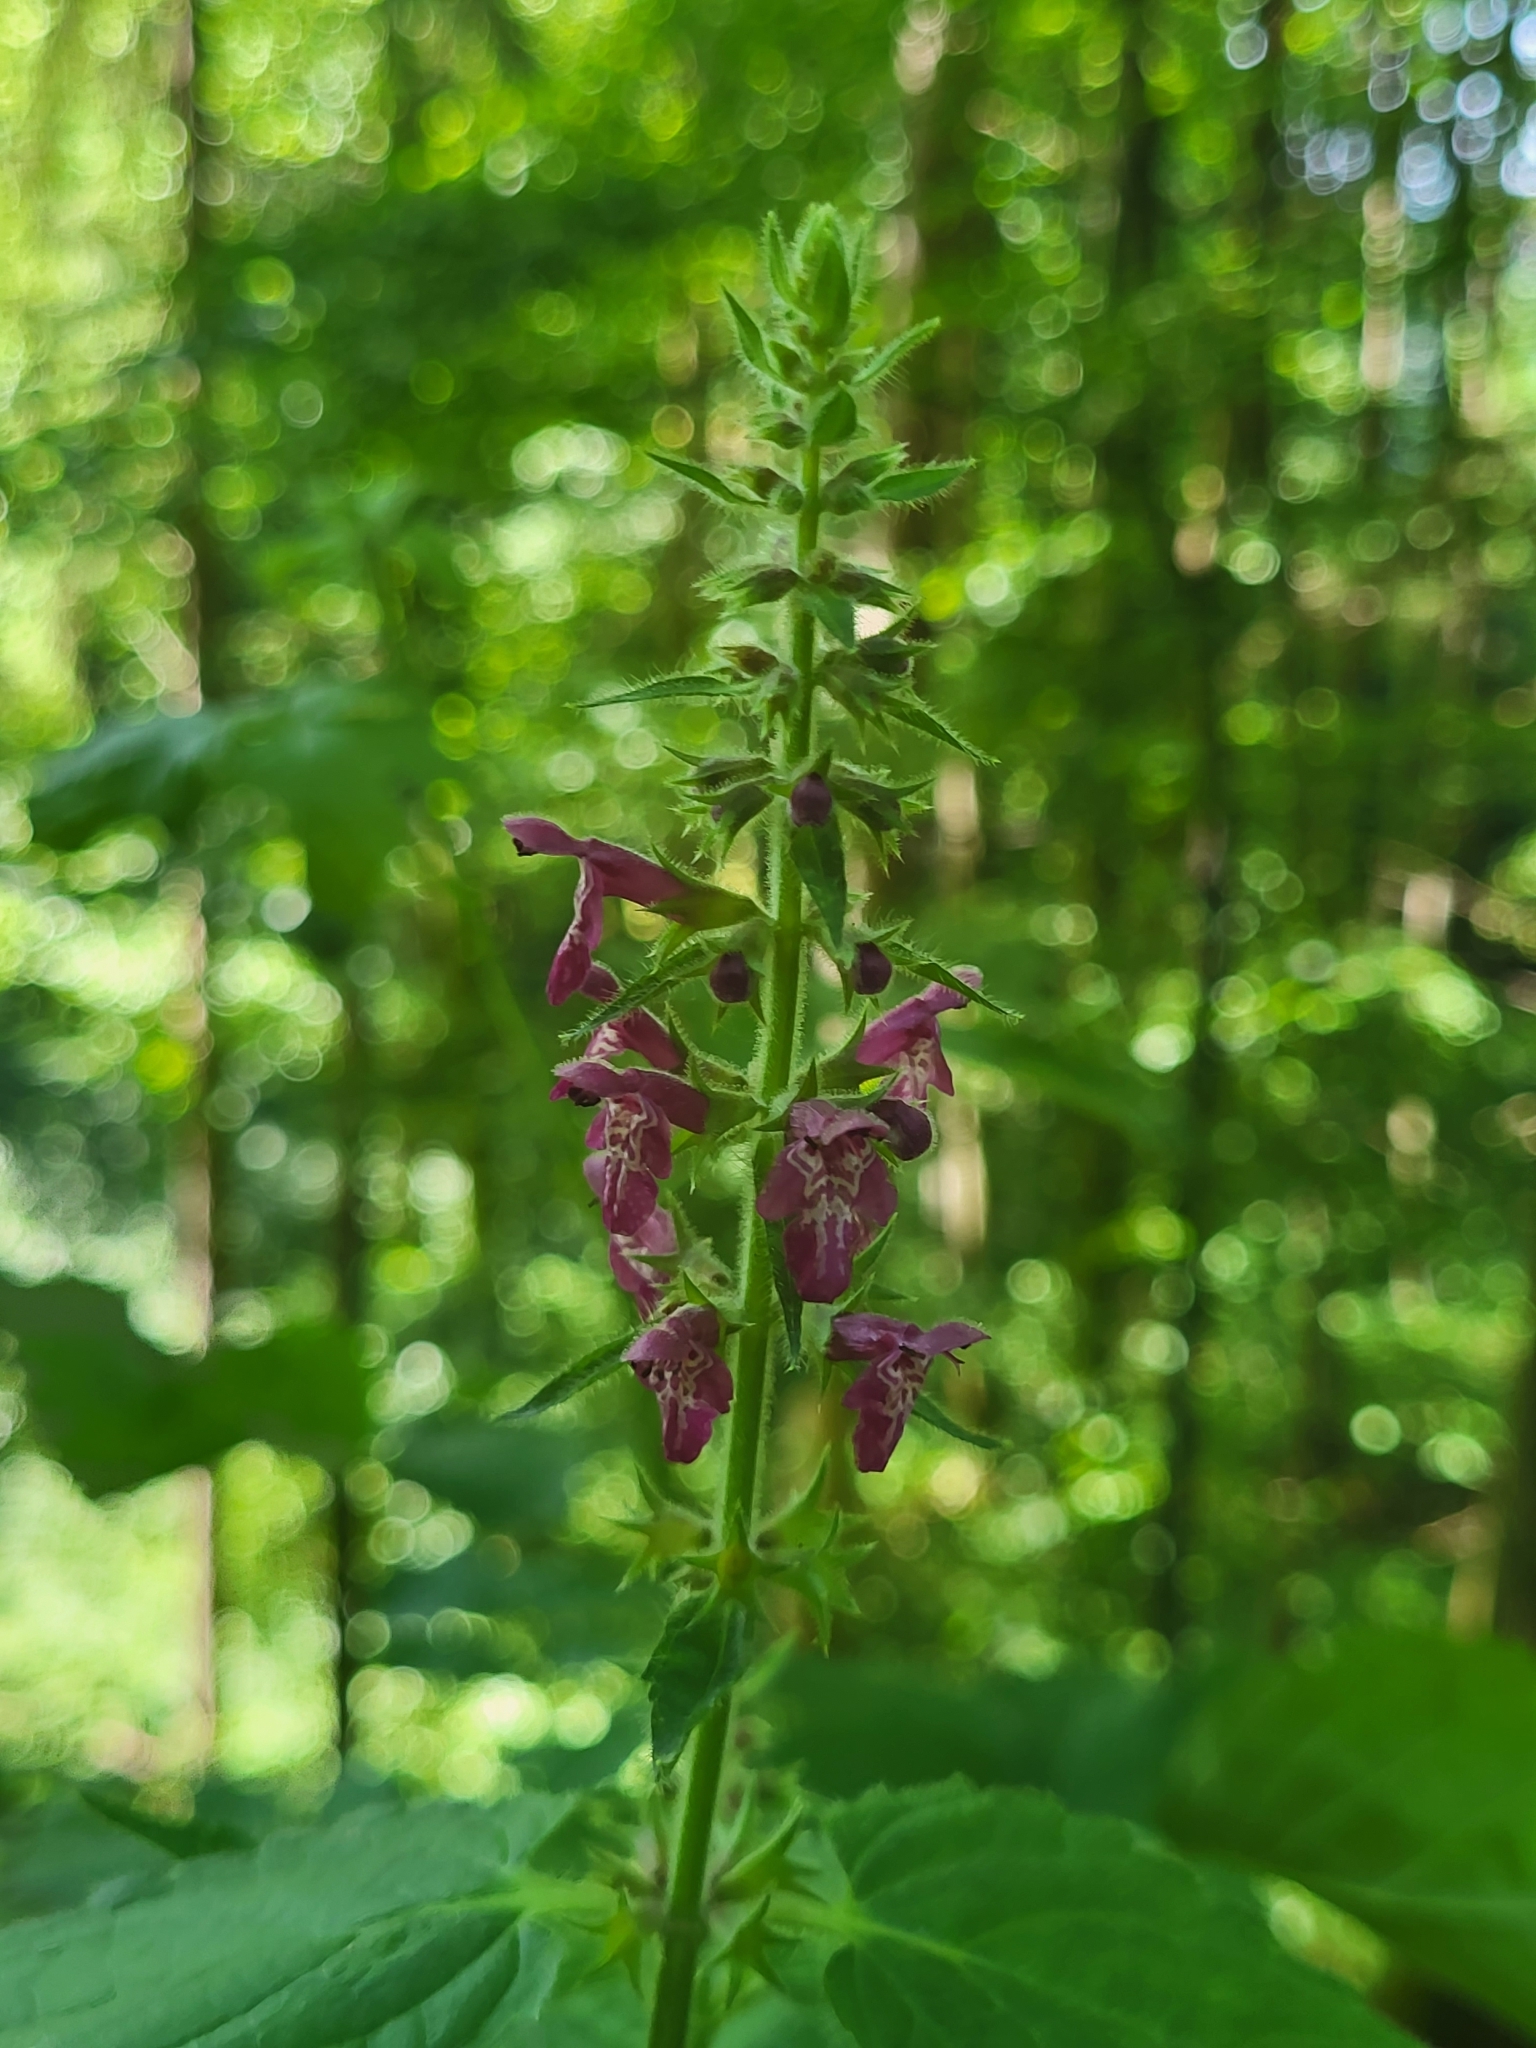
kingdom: Plantae
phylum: Tracheophyta
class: Magnoliopsida
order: Lamiales
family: Lamiaceae
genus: Stachys
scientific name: Stachys sylvatica
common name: Hedge woundwort
